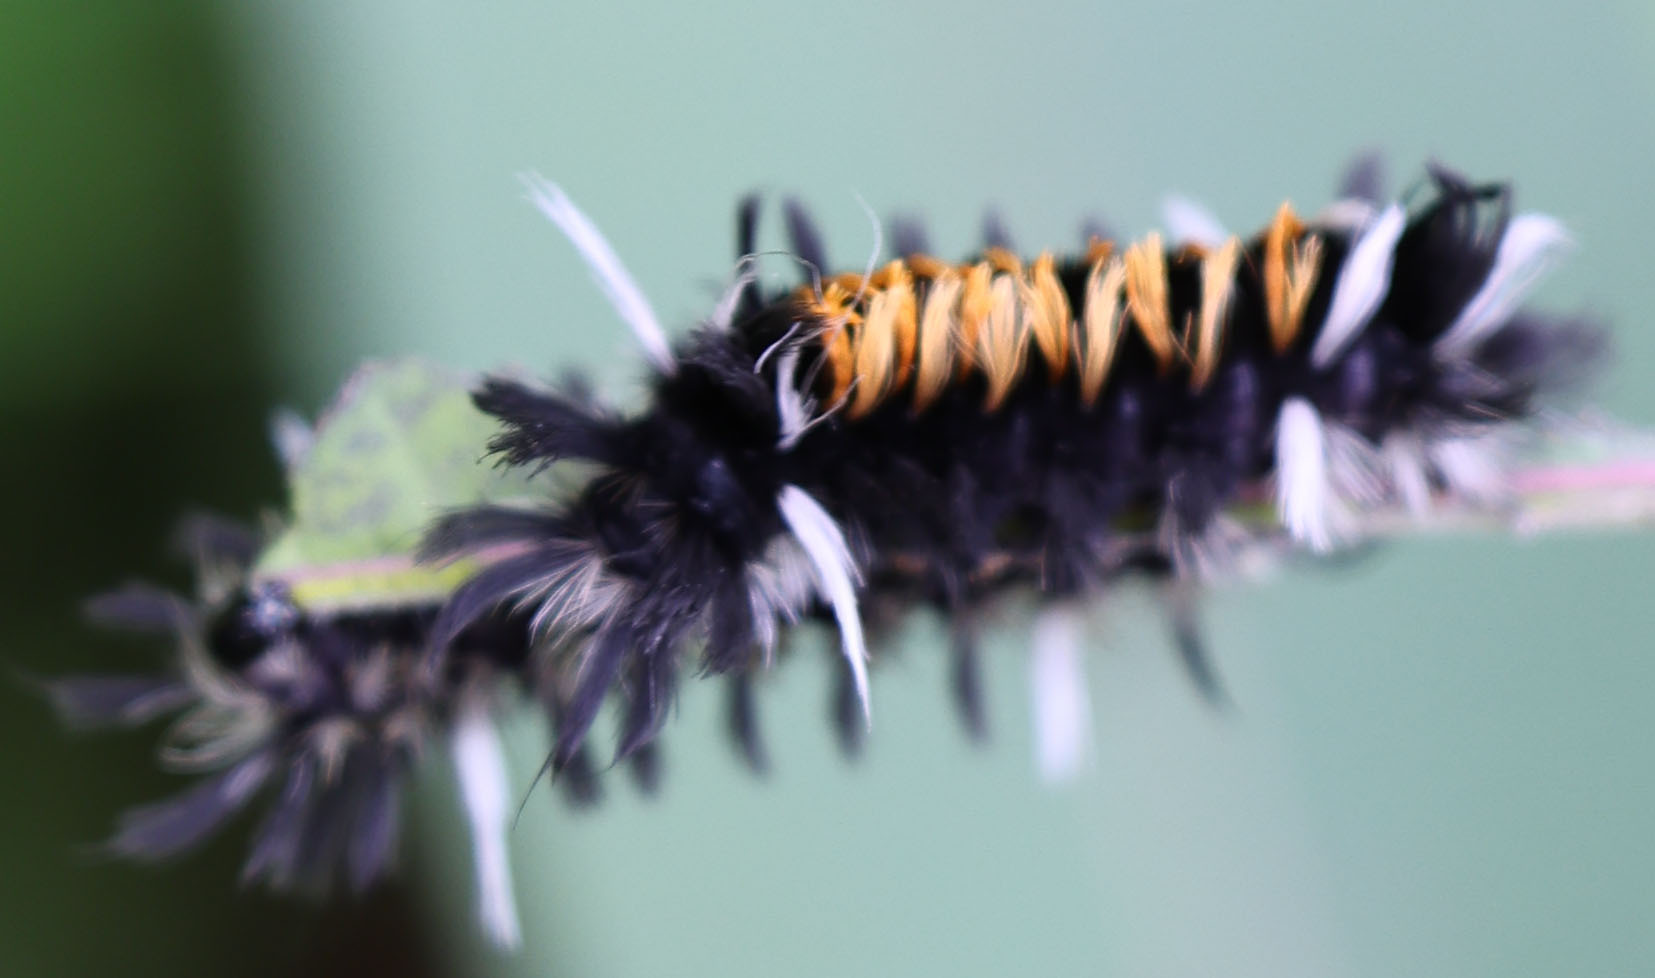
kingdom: Animalia
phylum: Arthropoda
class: Insecta
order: Lepidoptera
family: Erebidae
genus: Euchaetes
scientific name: Euchaetes egle
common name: Milkweed tussock moth
